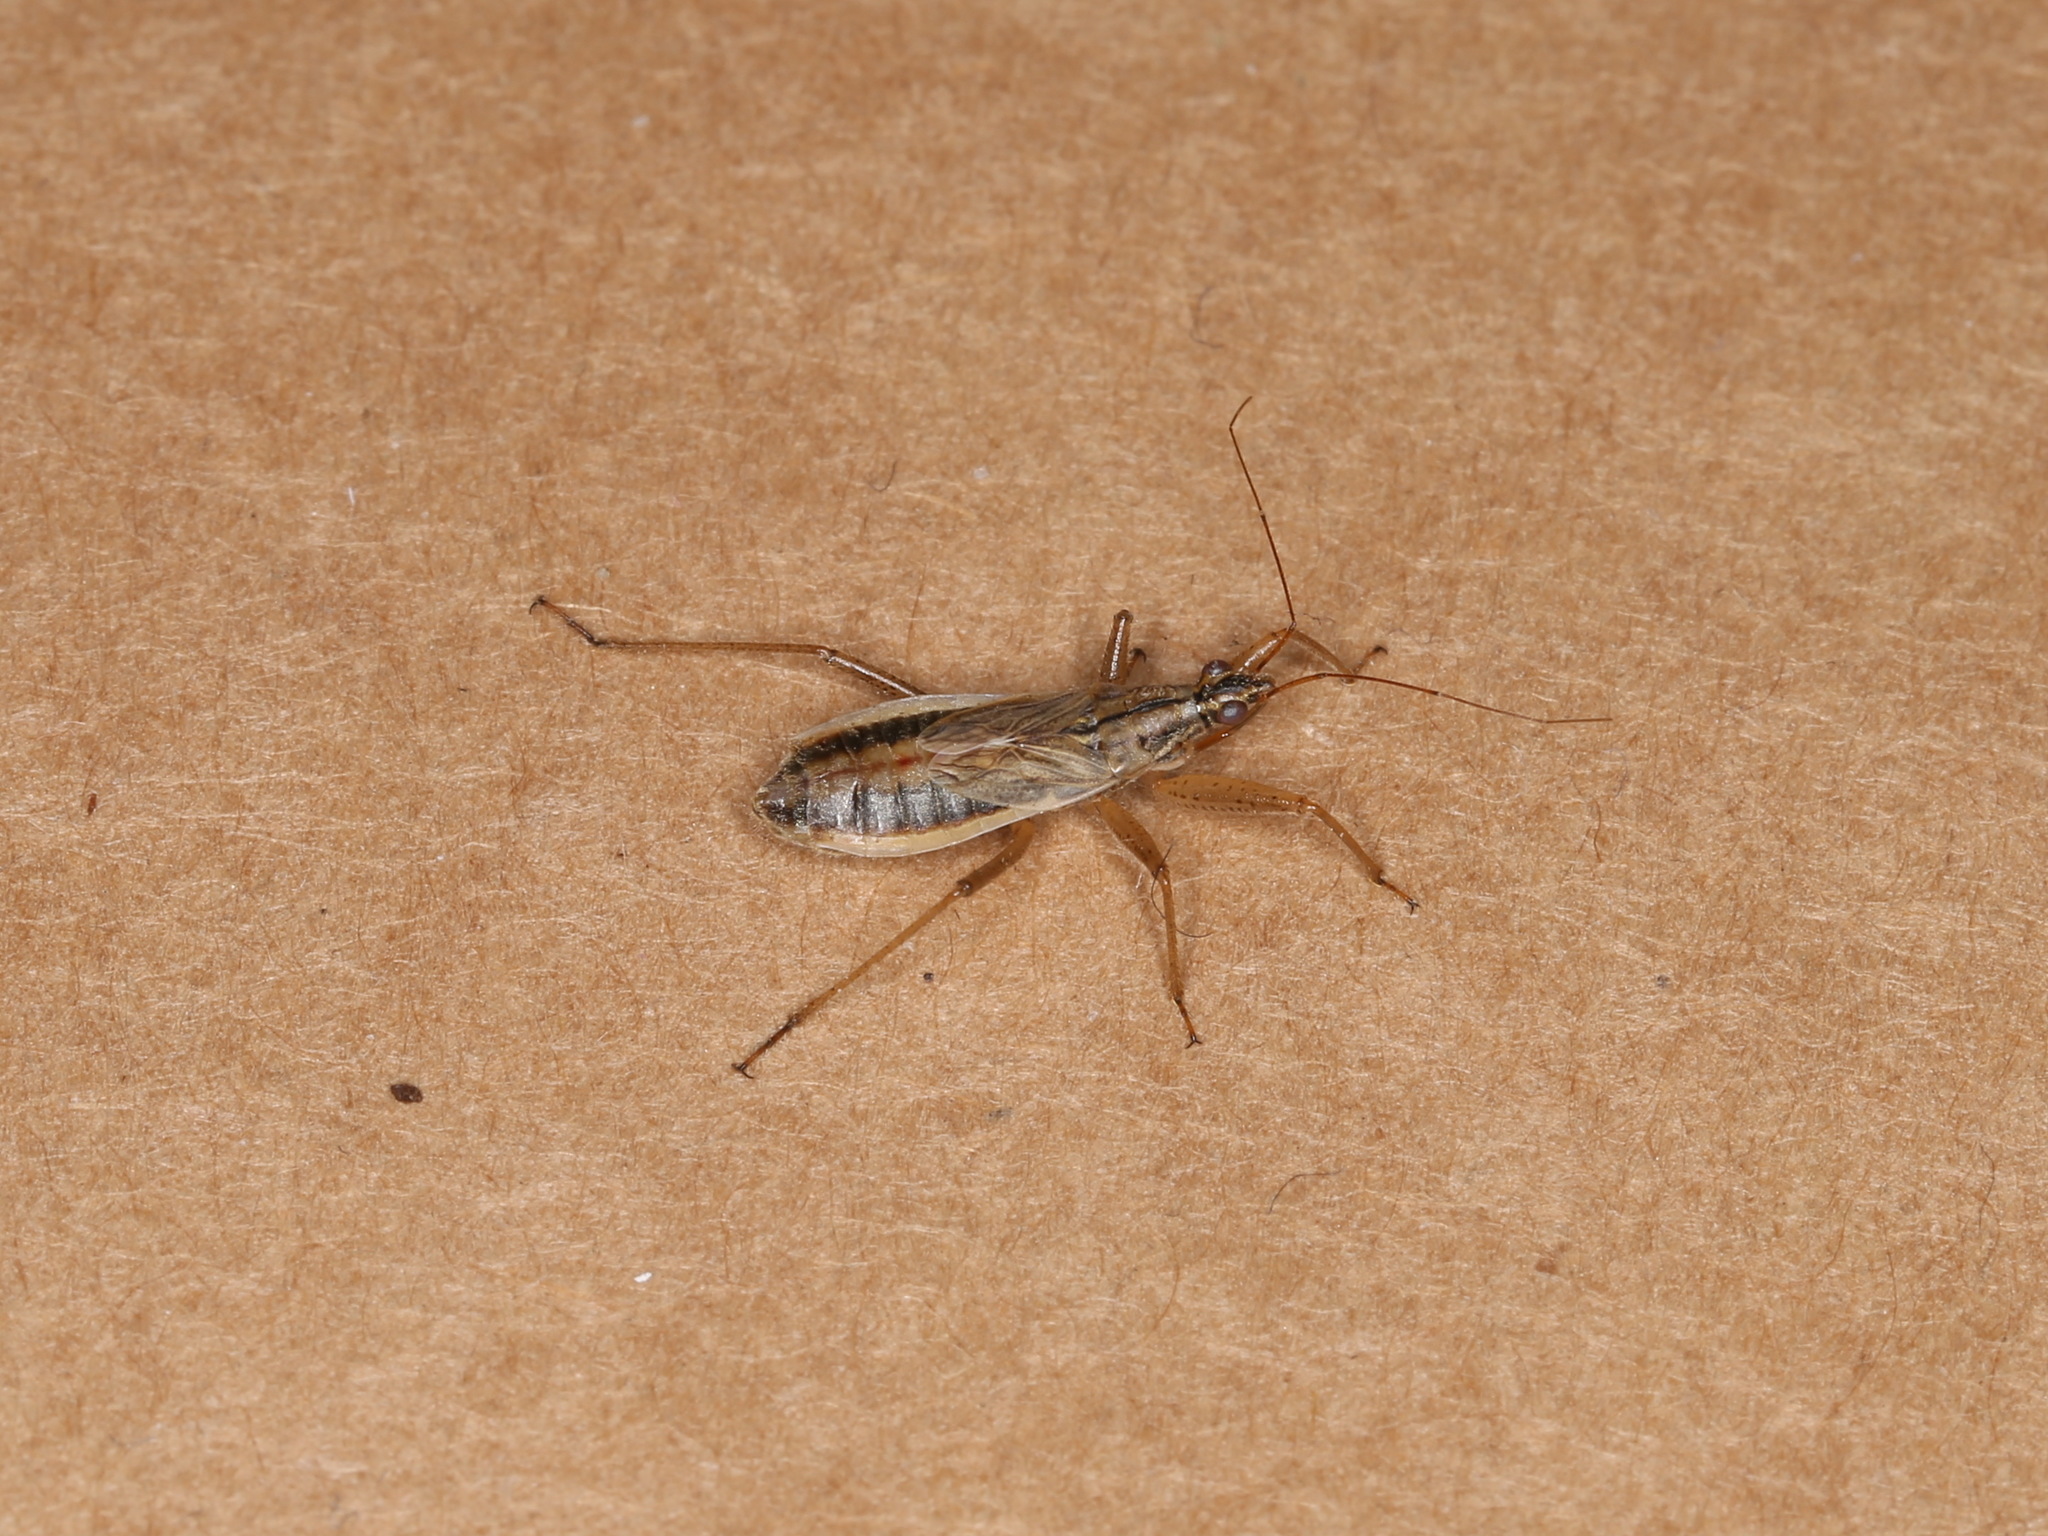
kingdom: Animalia
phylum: Arthropoda
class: Insecta
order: Hemiptera
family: Nabidae
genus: Nabis
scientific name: Nabis flavomarginatus
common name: Broad damselbug
